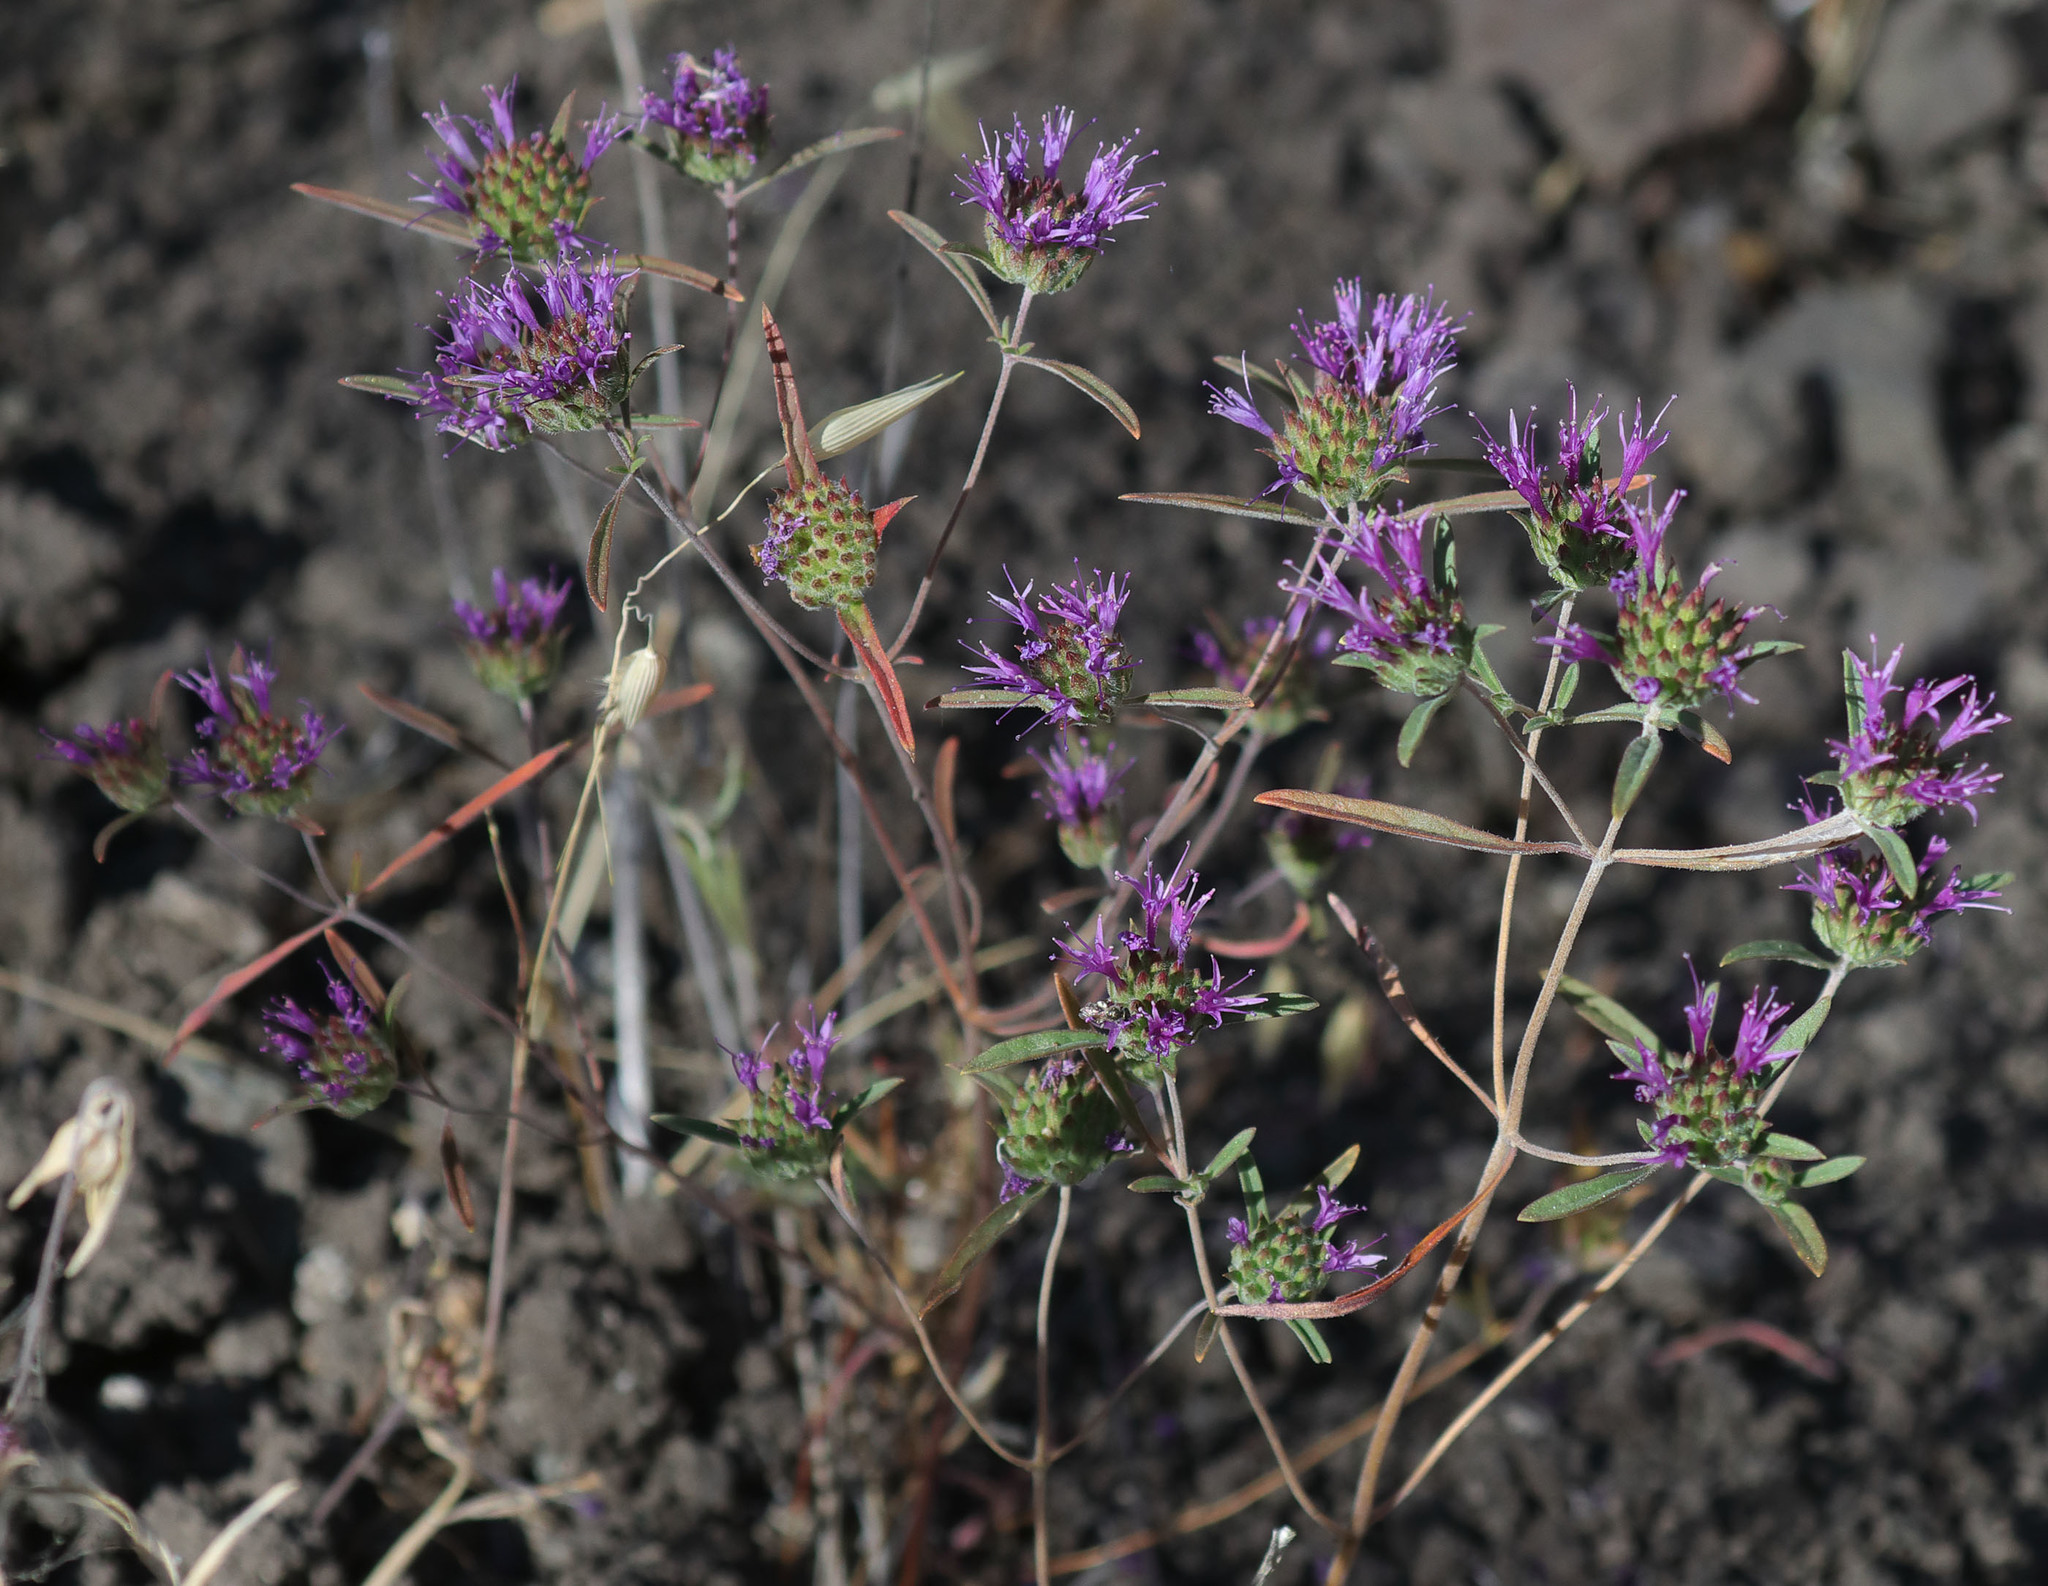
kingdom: Plantae
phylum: Tracheophyta
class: Magnoliopsida
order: Lamiales
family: Lamiaceae
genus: Monardella
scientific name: Monardella douglasii
